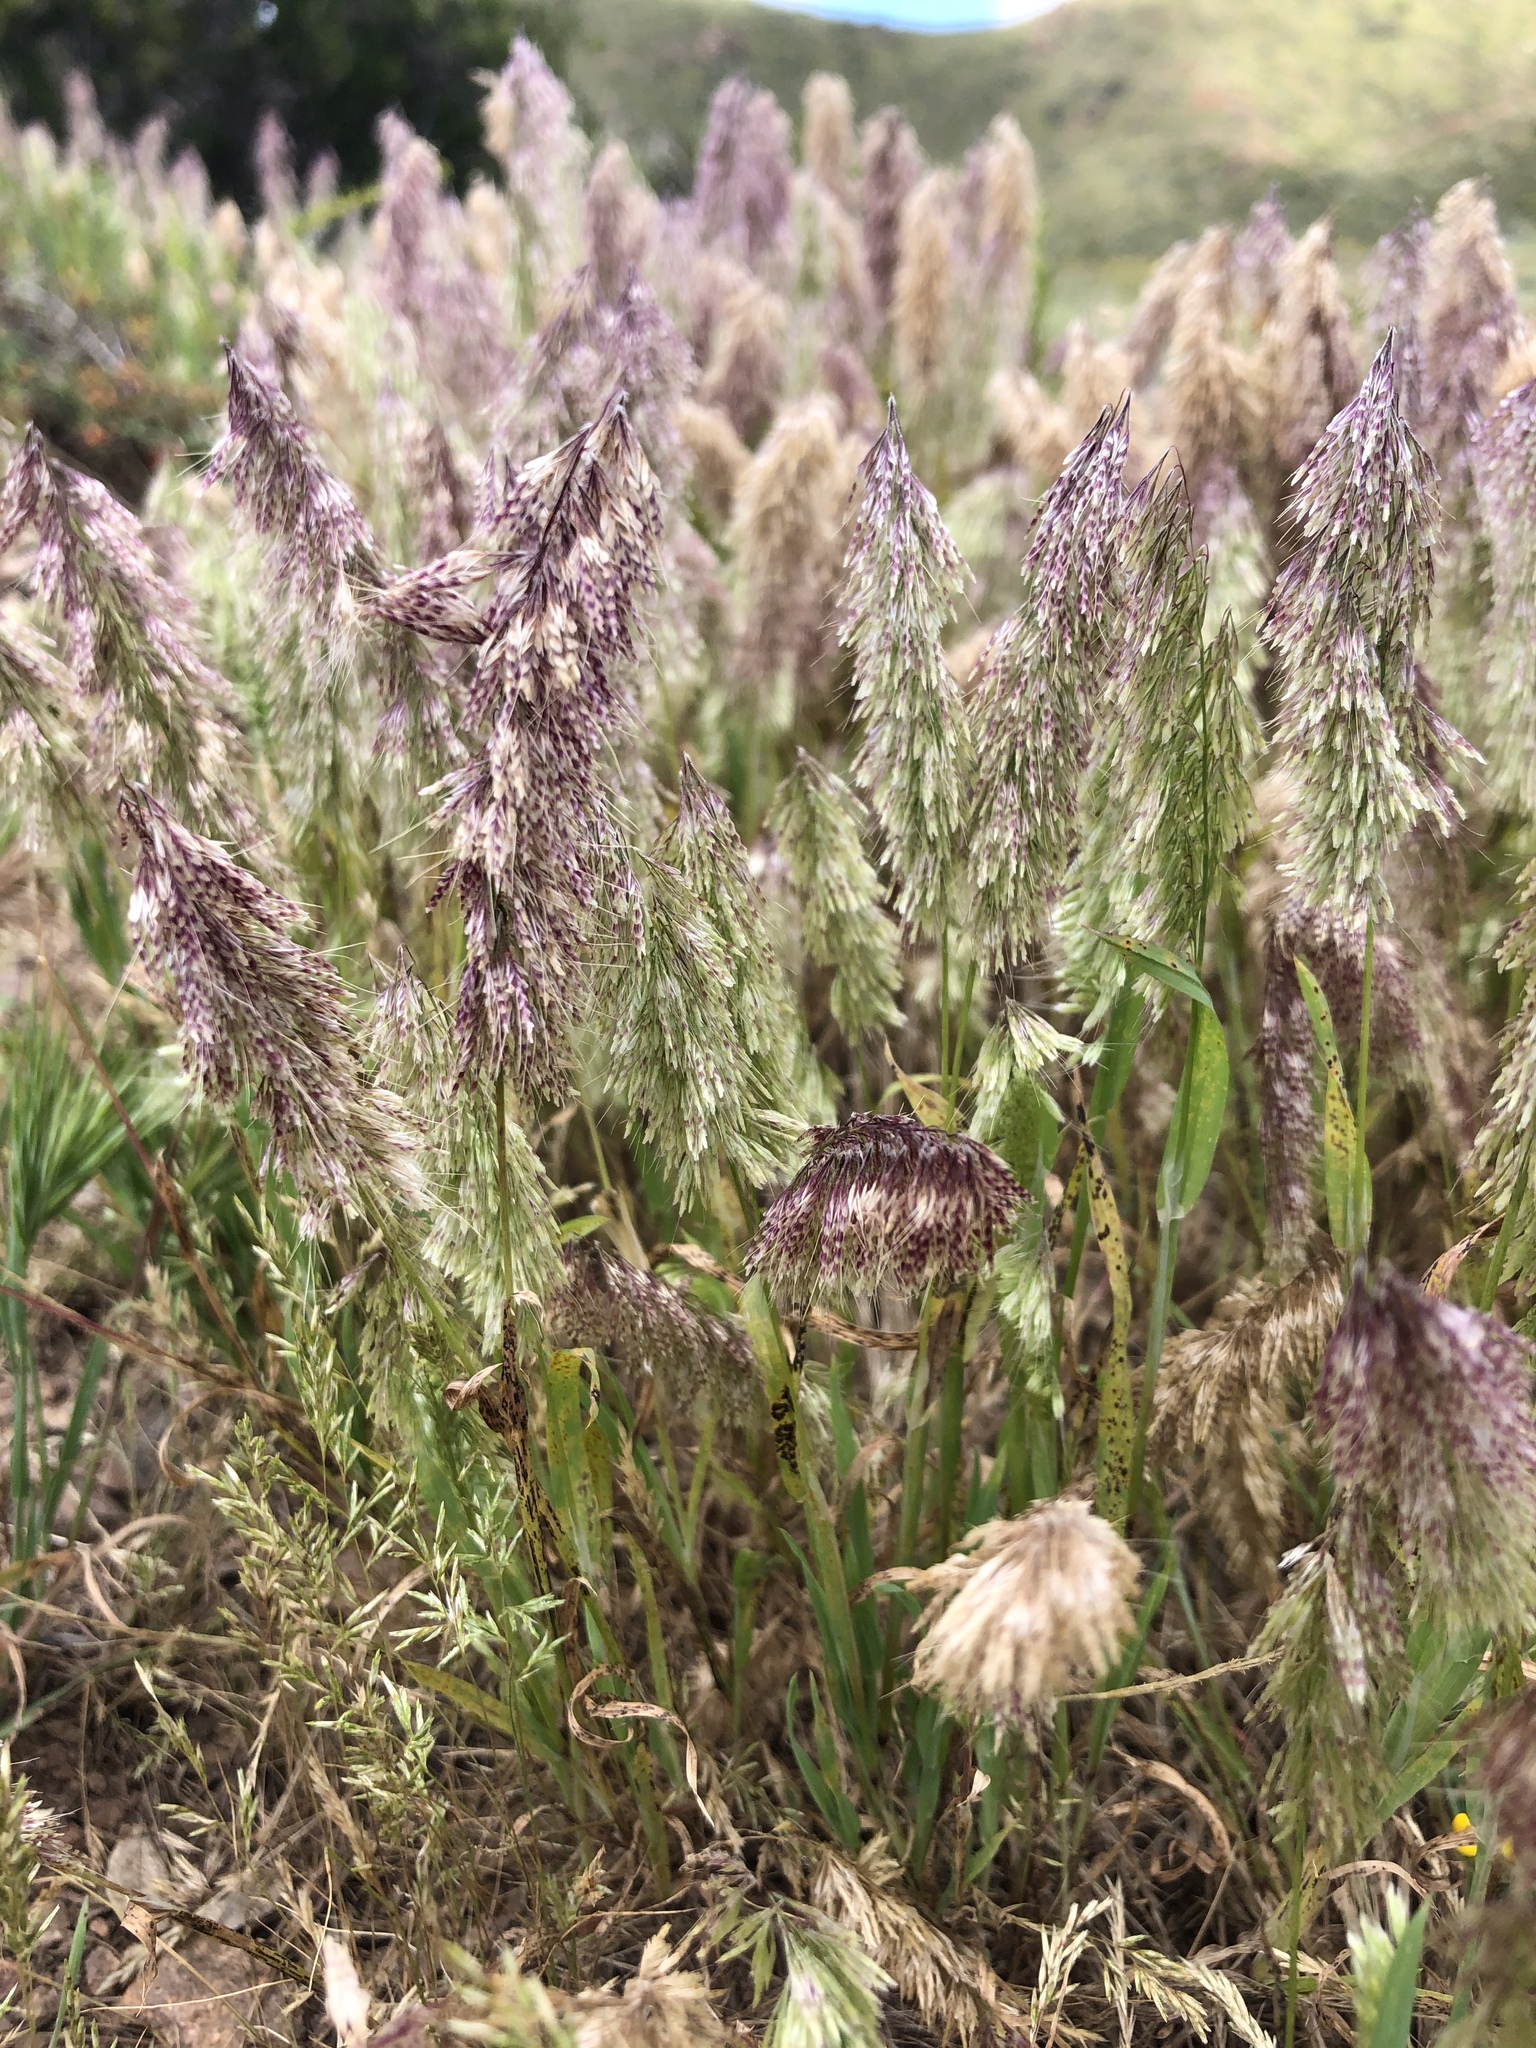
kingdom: Plantae
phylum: Tracheophyta
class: Liliopsida
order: Poales
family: Poaceae
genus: Lamarckia
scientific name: Lamarckia aurea
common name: Golden dog's-tail
